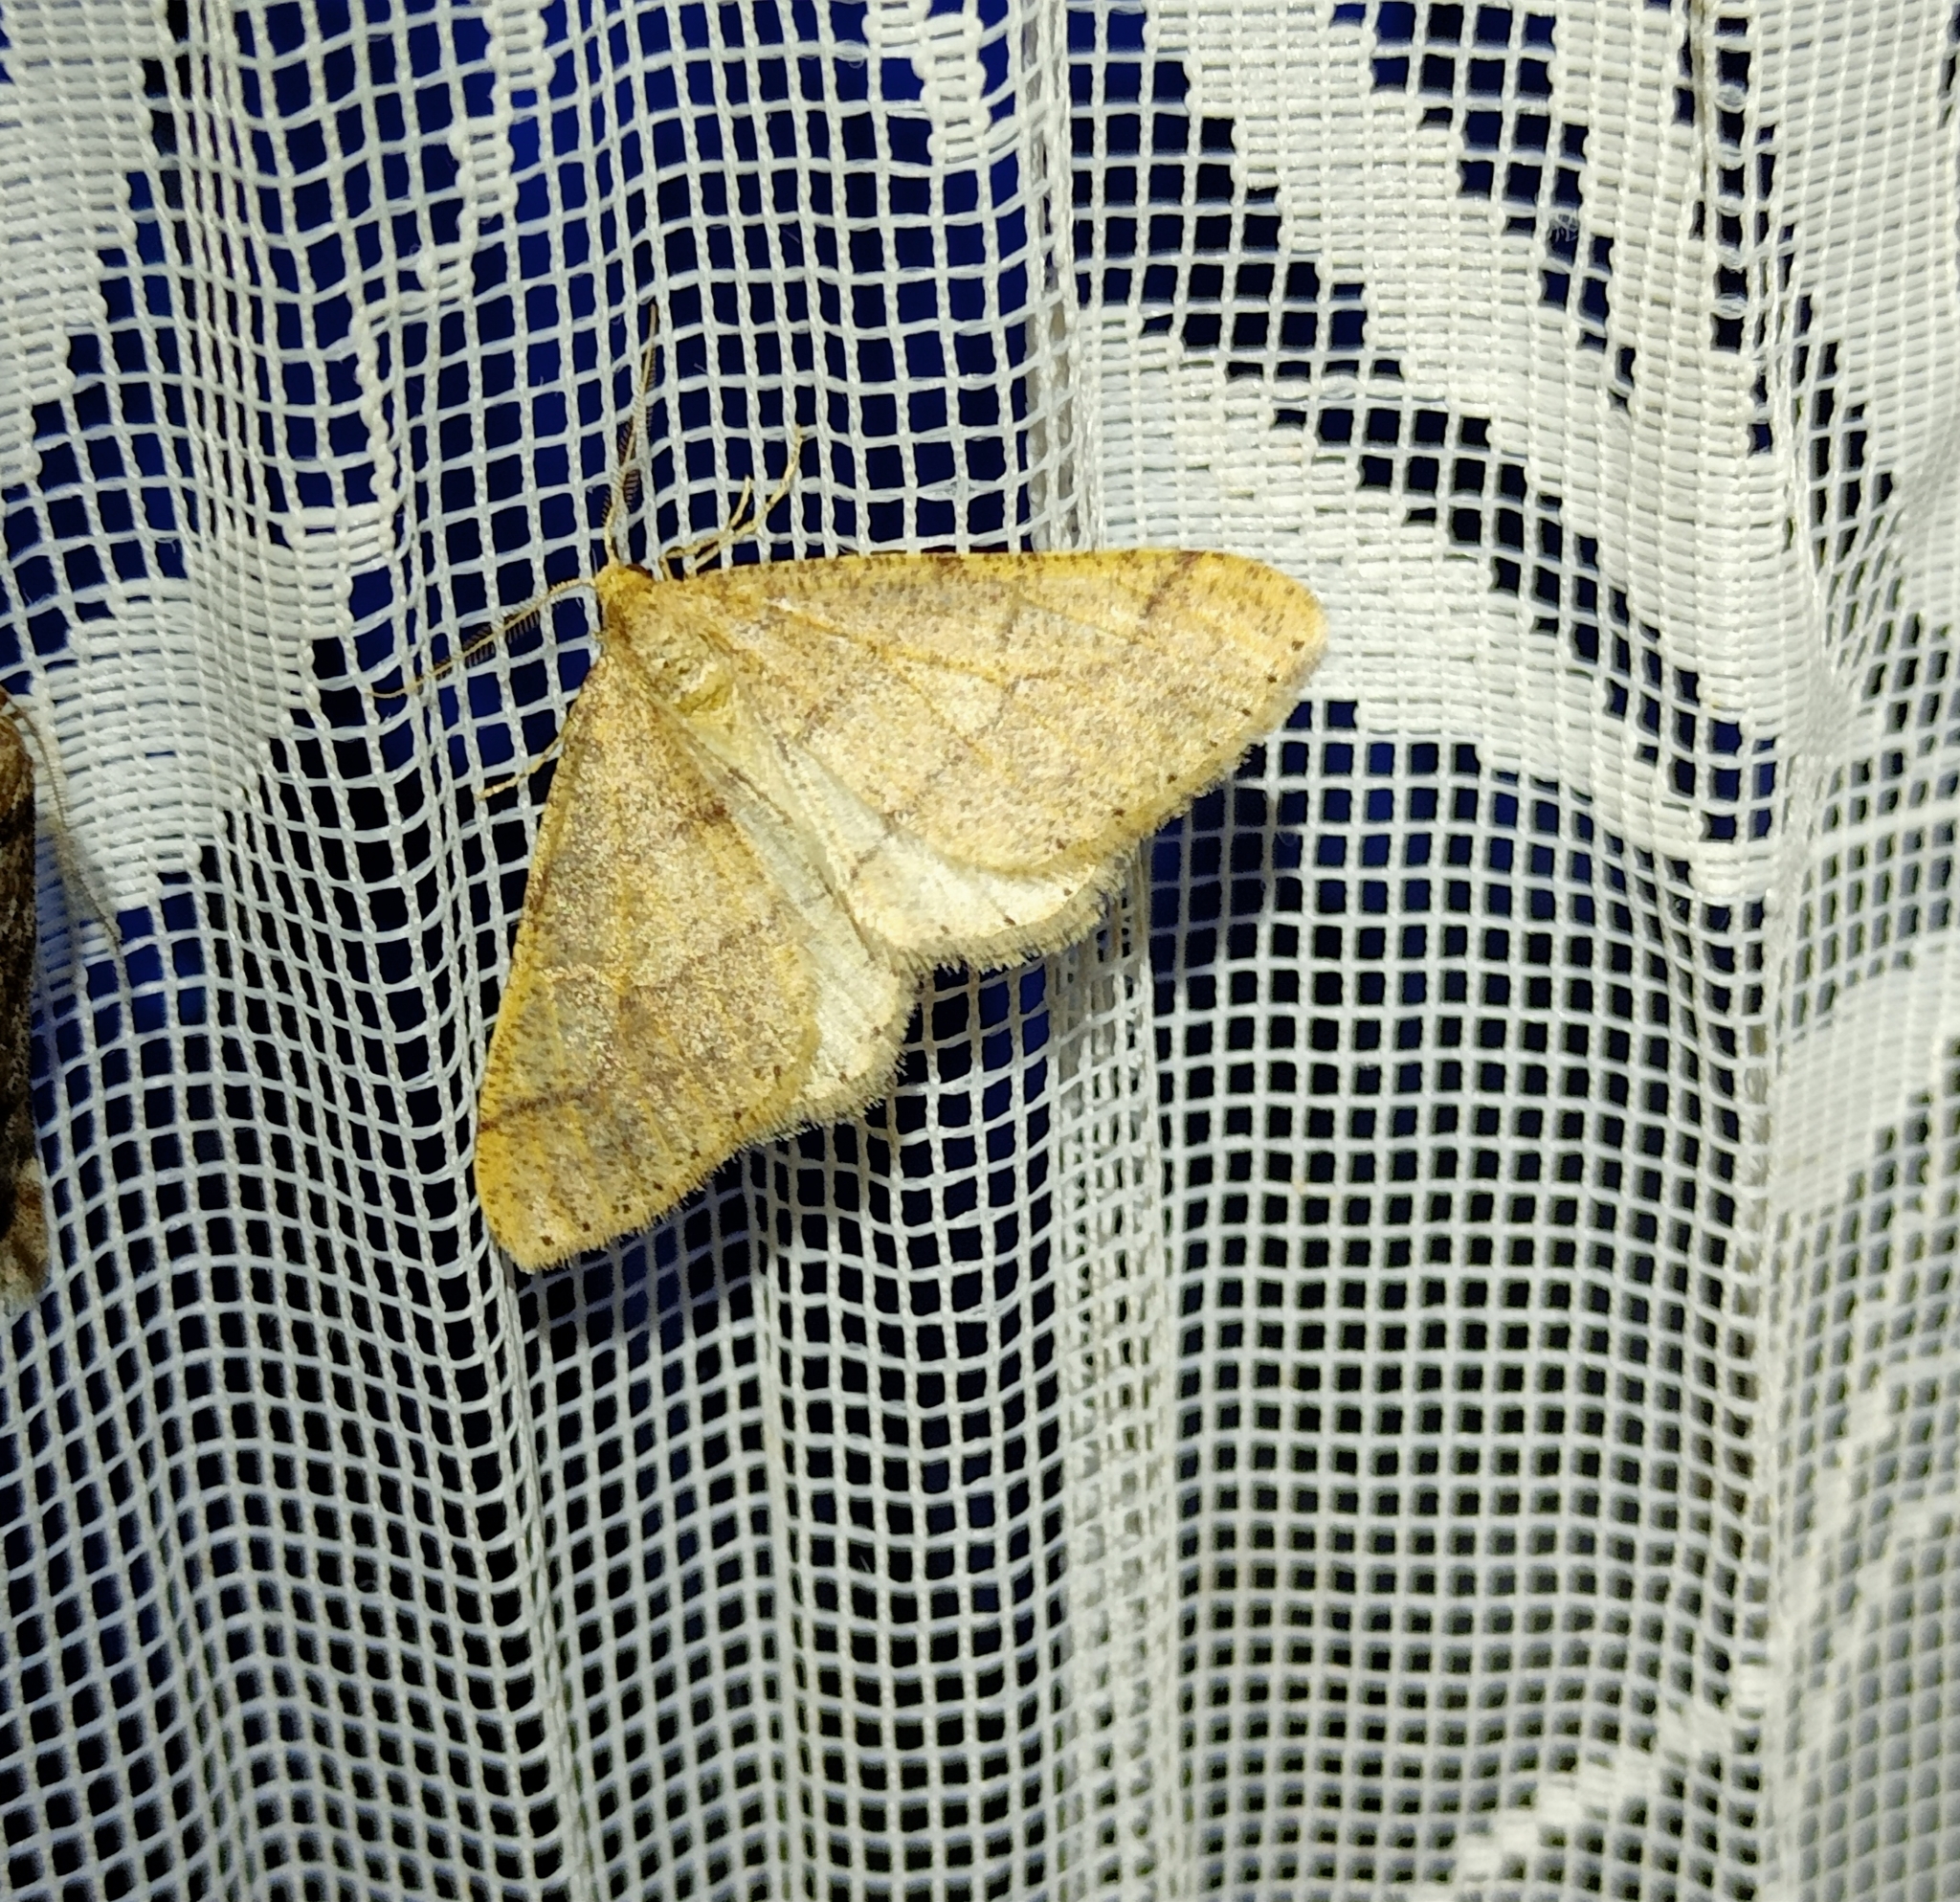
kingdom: Animalia
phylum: Arthropoda
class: Insecta
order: Lepidoptera
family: Geometridae
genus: Agriopis
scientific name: Agriopis marginaria
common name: Dotted border
